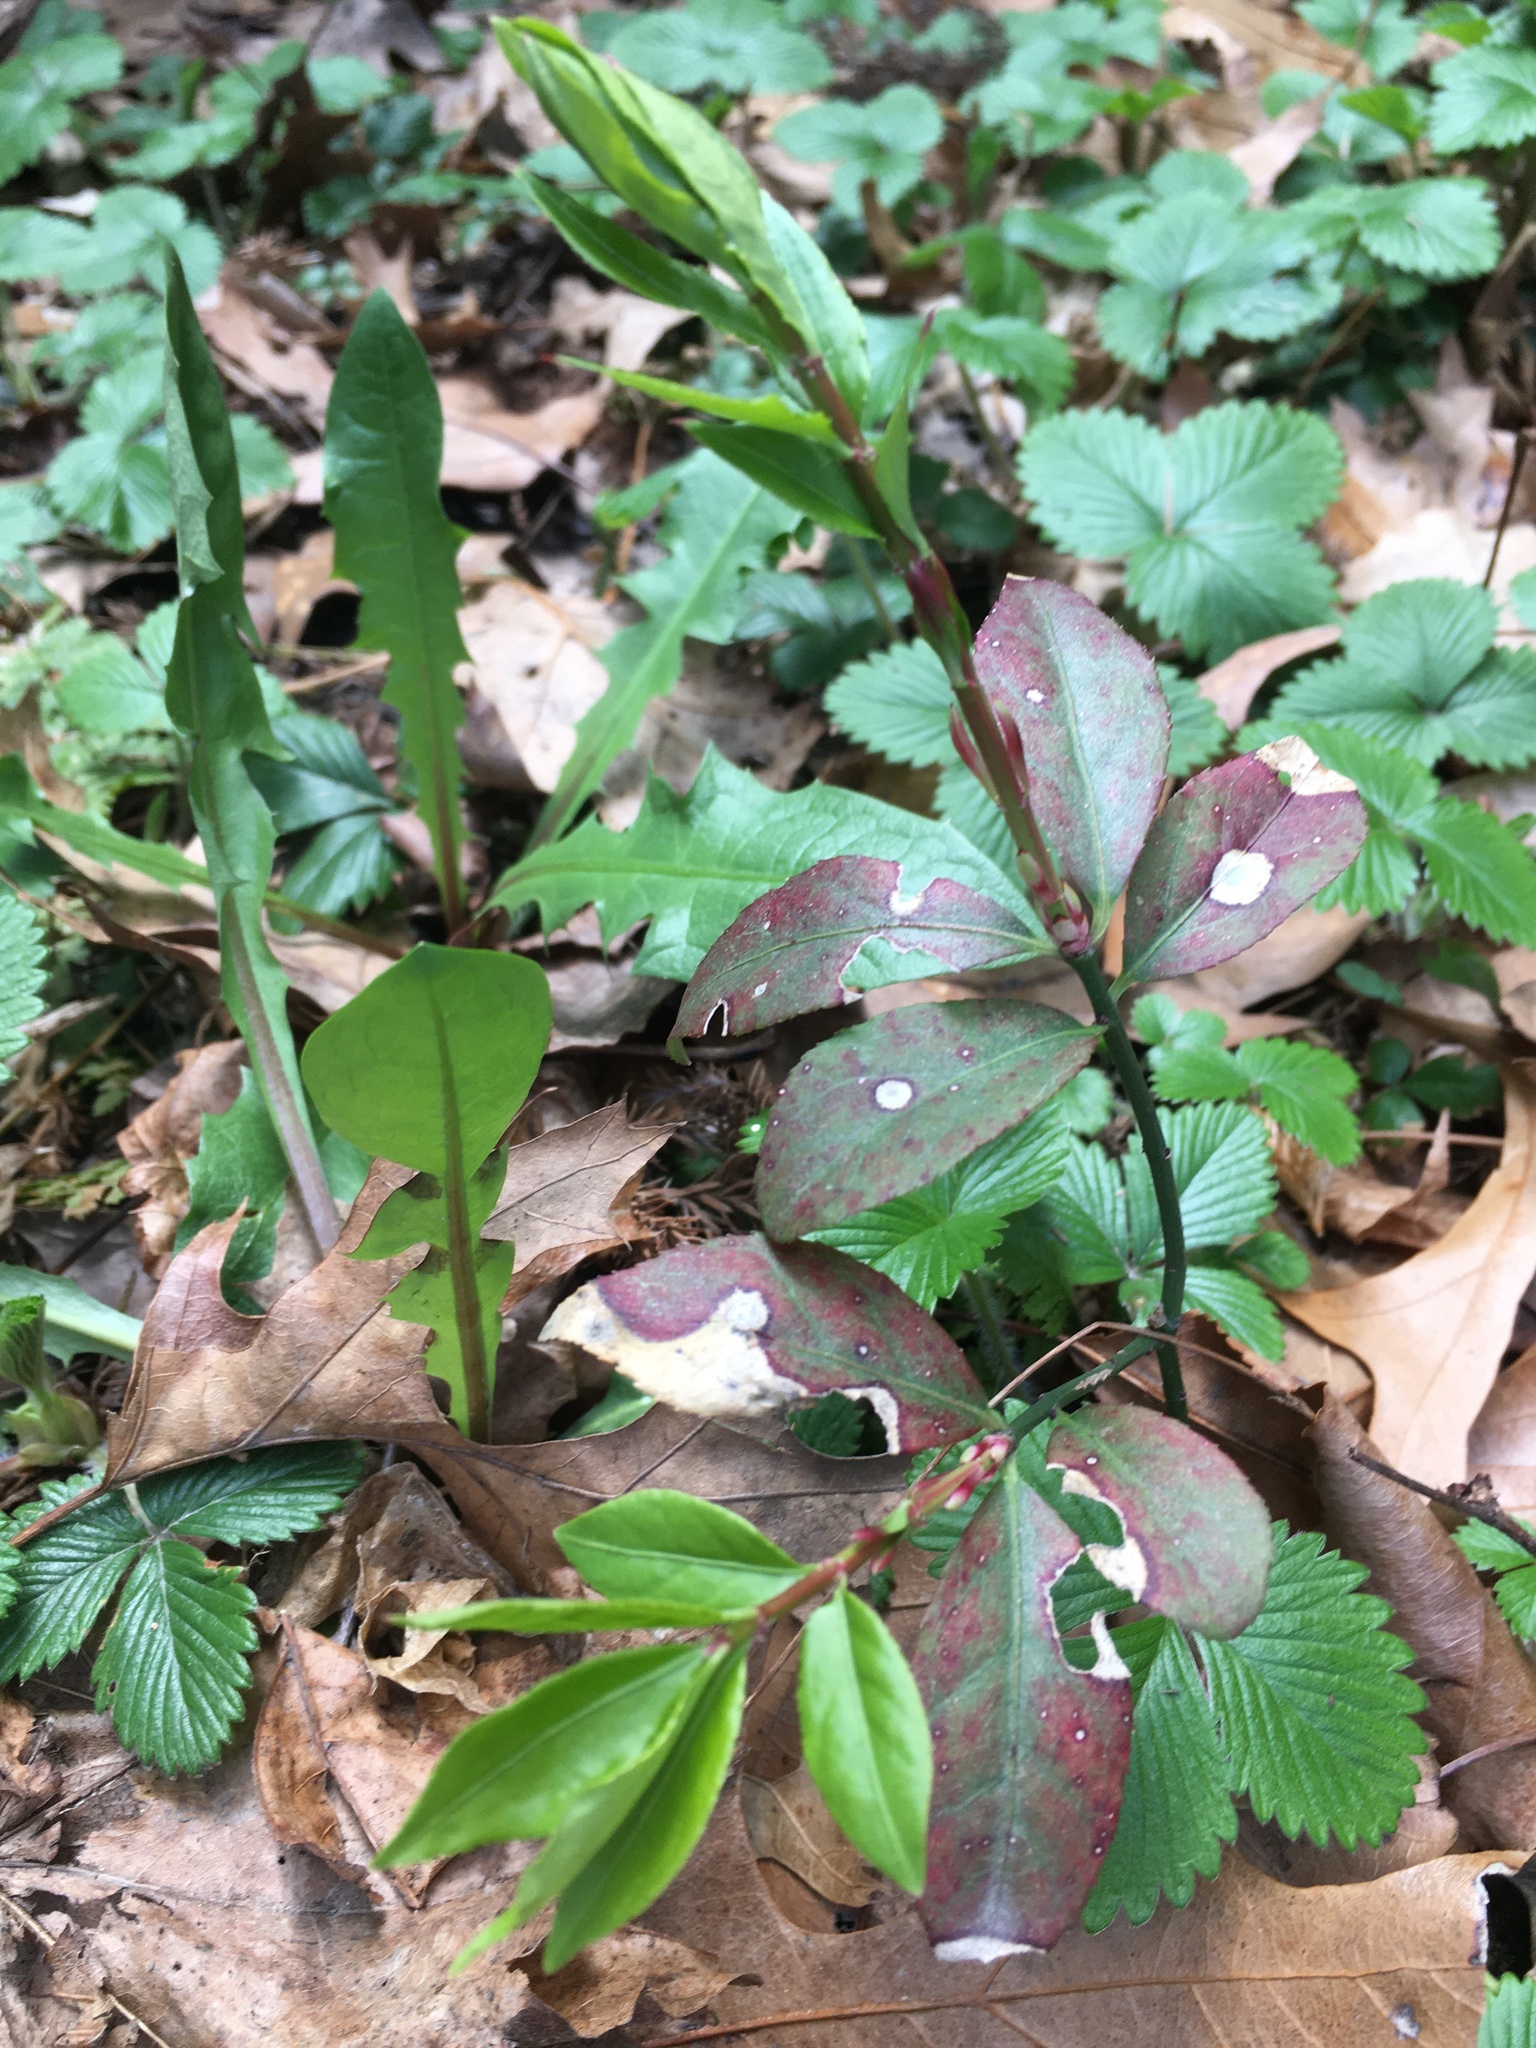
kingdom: Plantae
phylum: Tracheophyta
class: Magnoliopsida
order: Celastrales
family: Celastraceae
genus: Euonymus
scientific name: Euonymus alatus
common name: Winged euonymus
